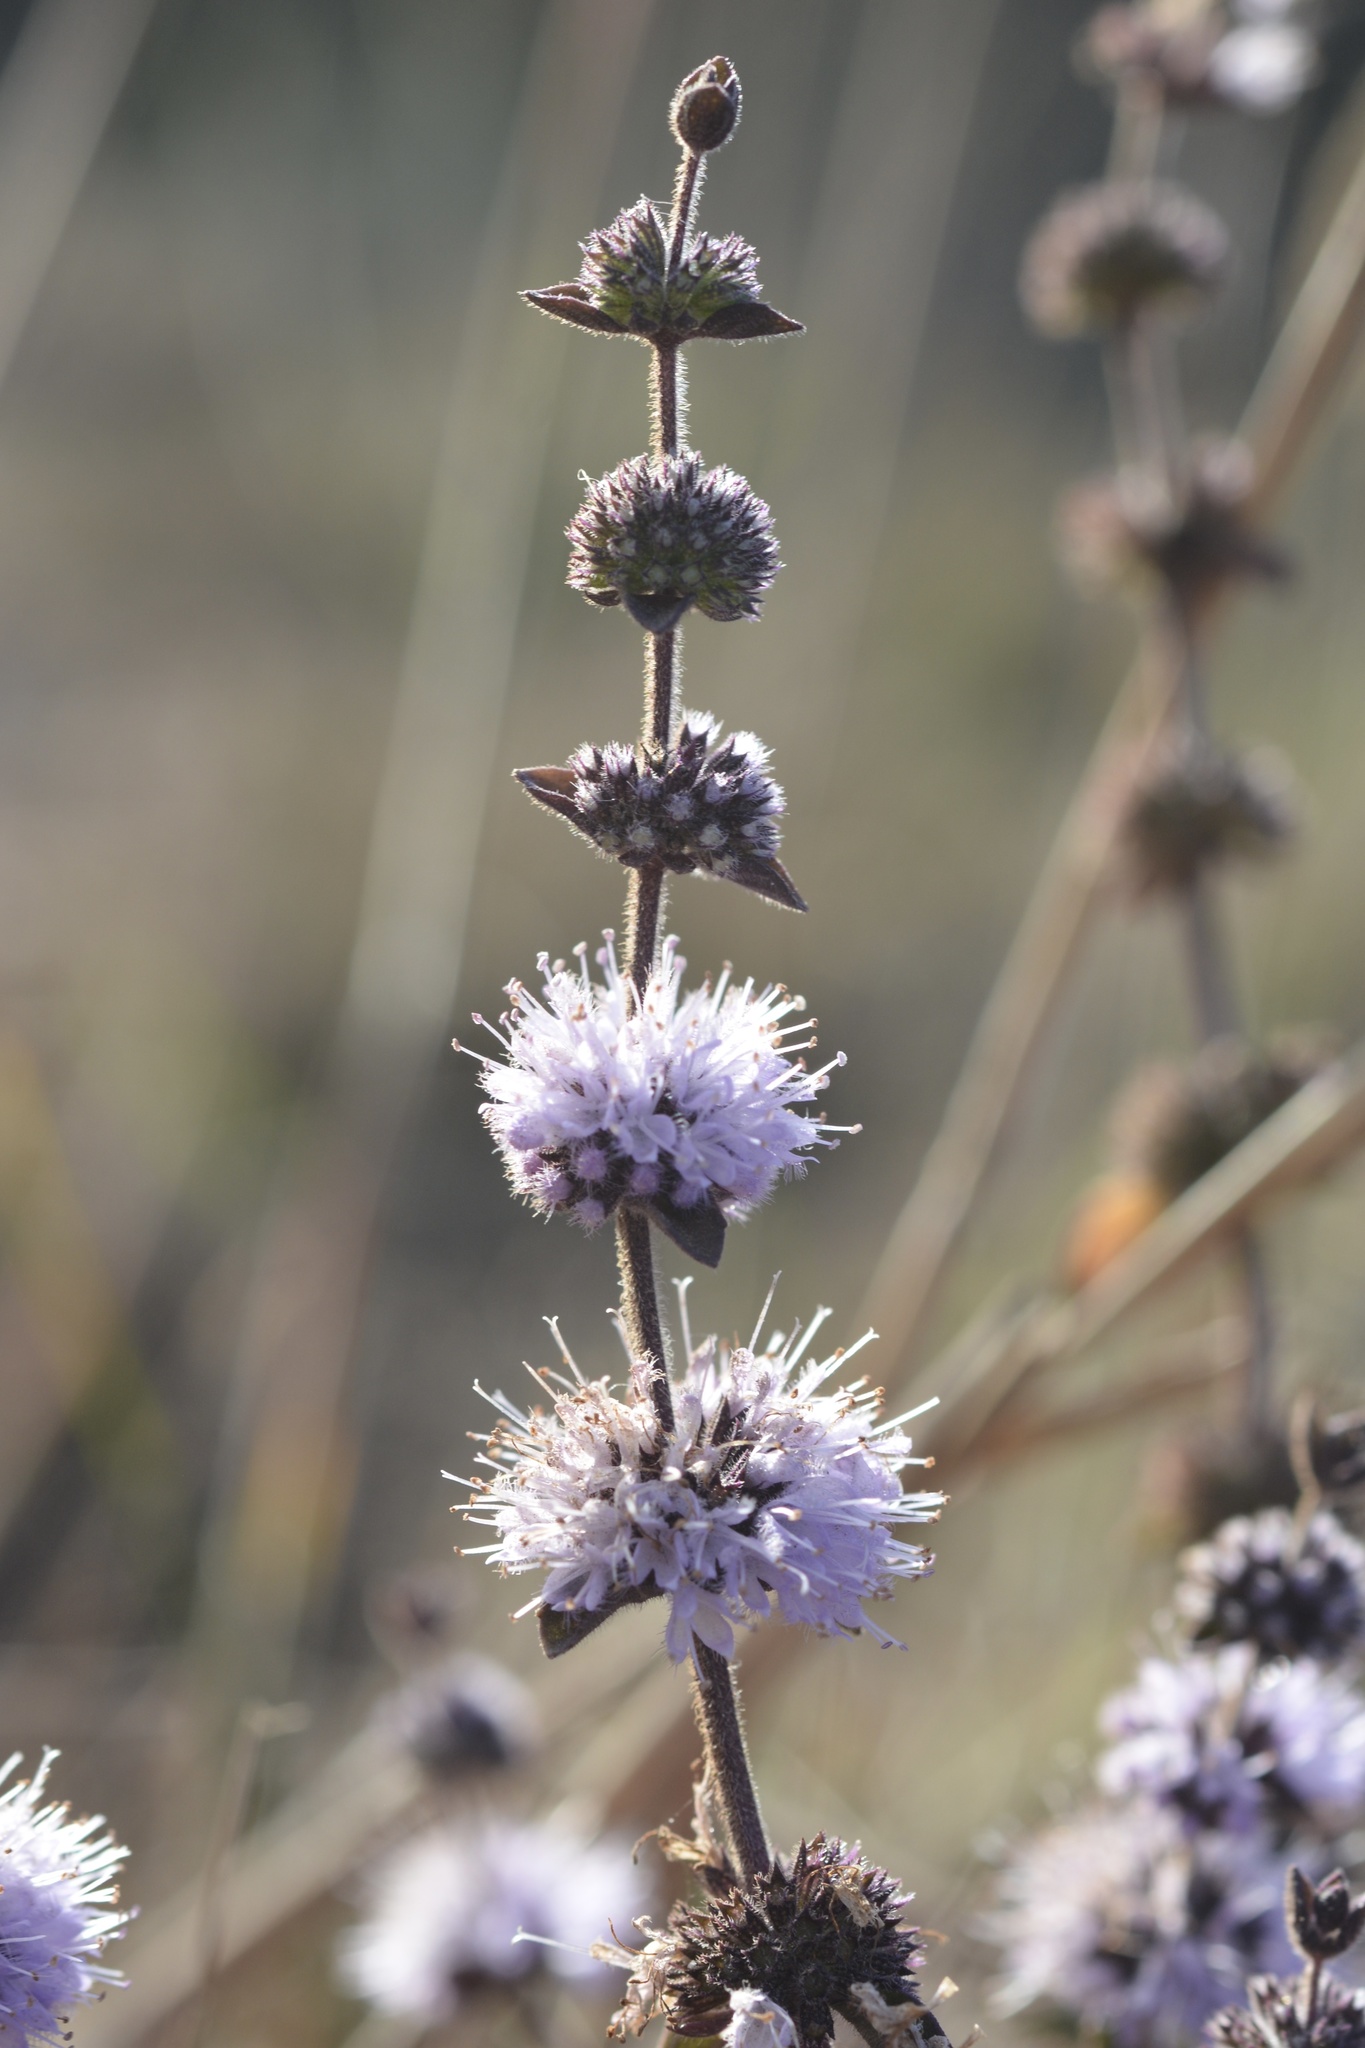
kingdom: Plantae
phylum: Tracheophyta
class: Magnoliopsida
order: Lamiales
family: Lamiaceae
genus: Mentha
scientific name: Mentha pulegium
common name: Pennyroyal
